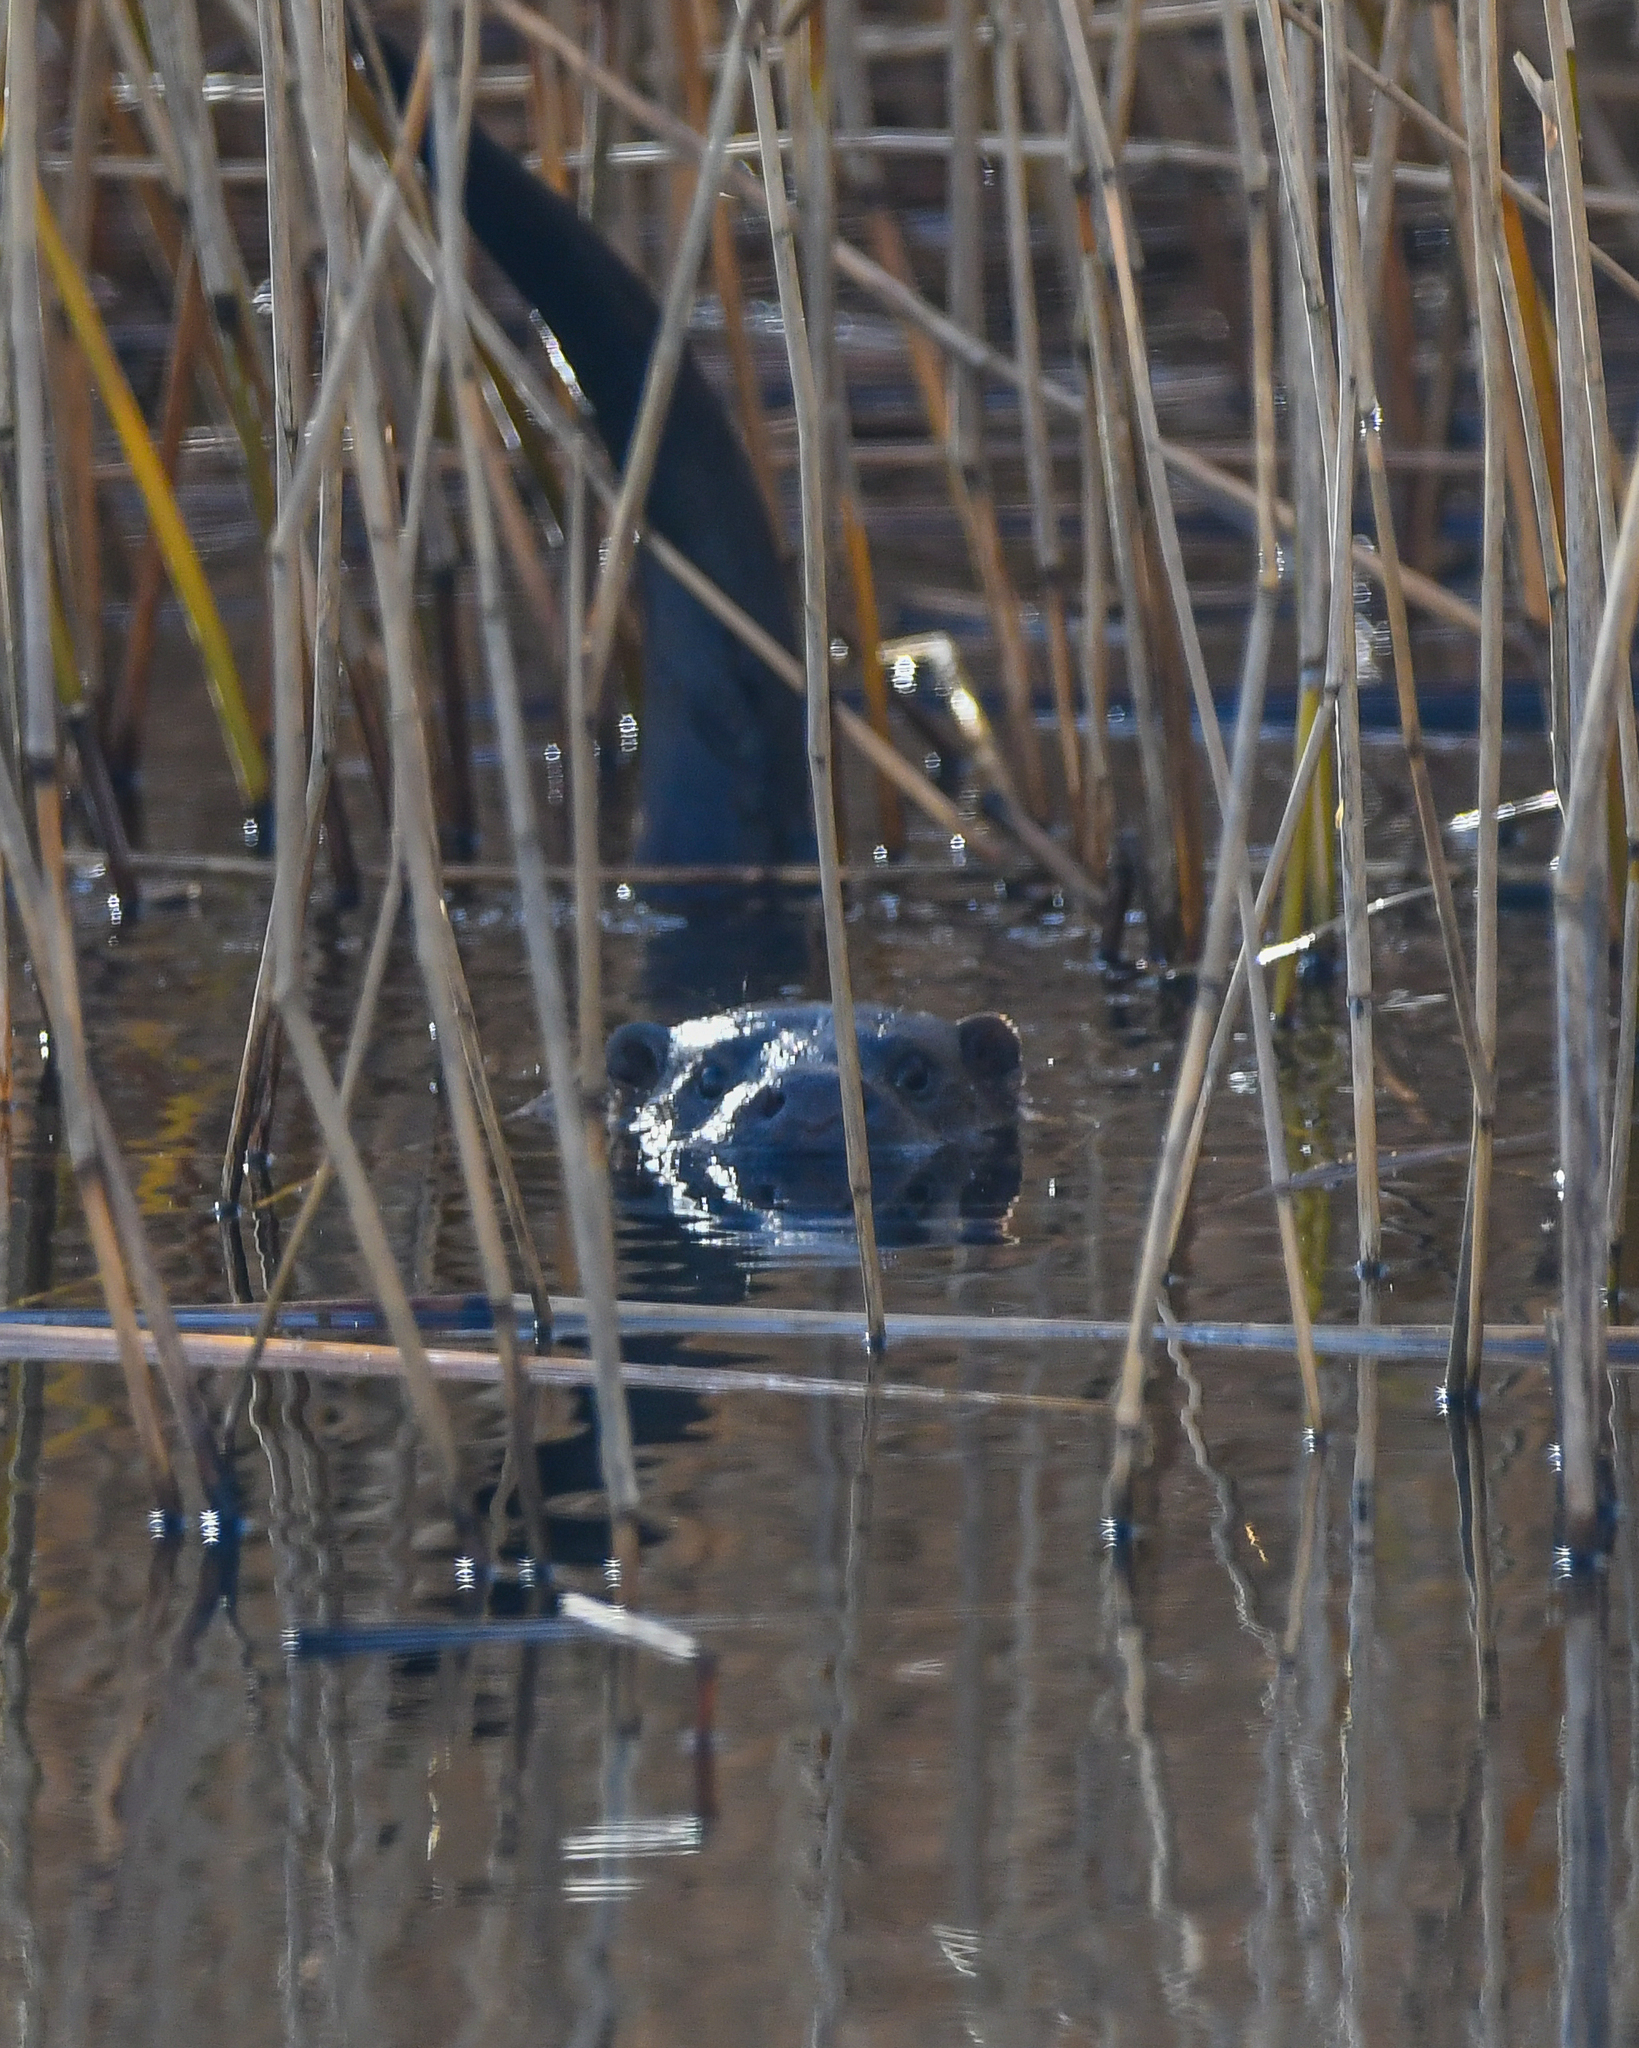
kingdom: Animalia
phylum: Chordata
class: Mammalia
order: Carnivora
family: Mustelidae
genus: Lutra
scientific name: Lutra lutra
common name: European otter
